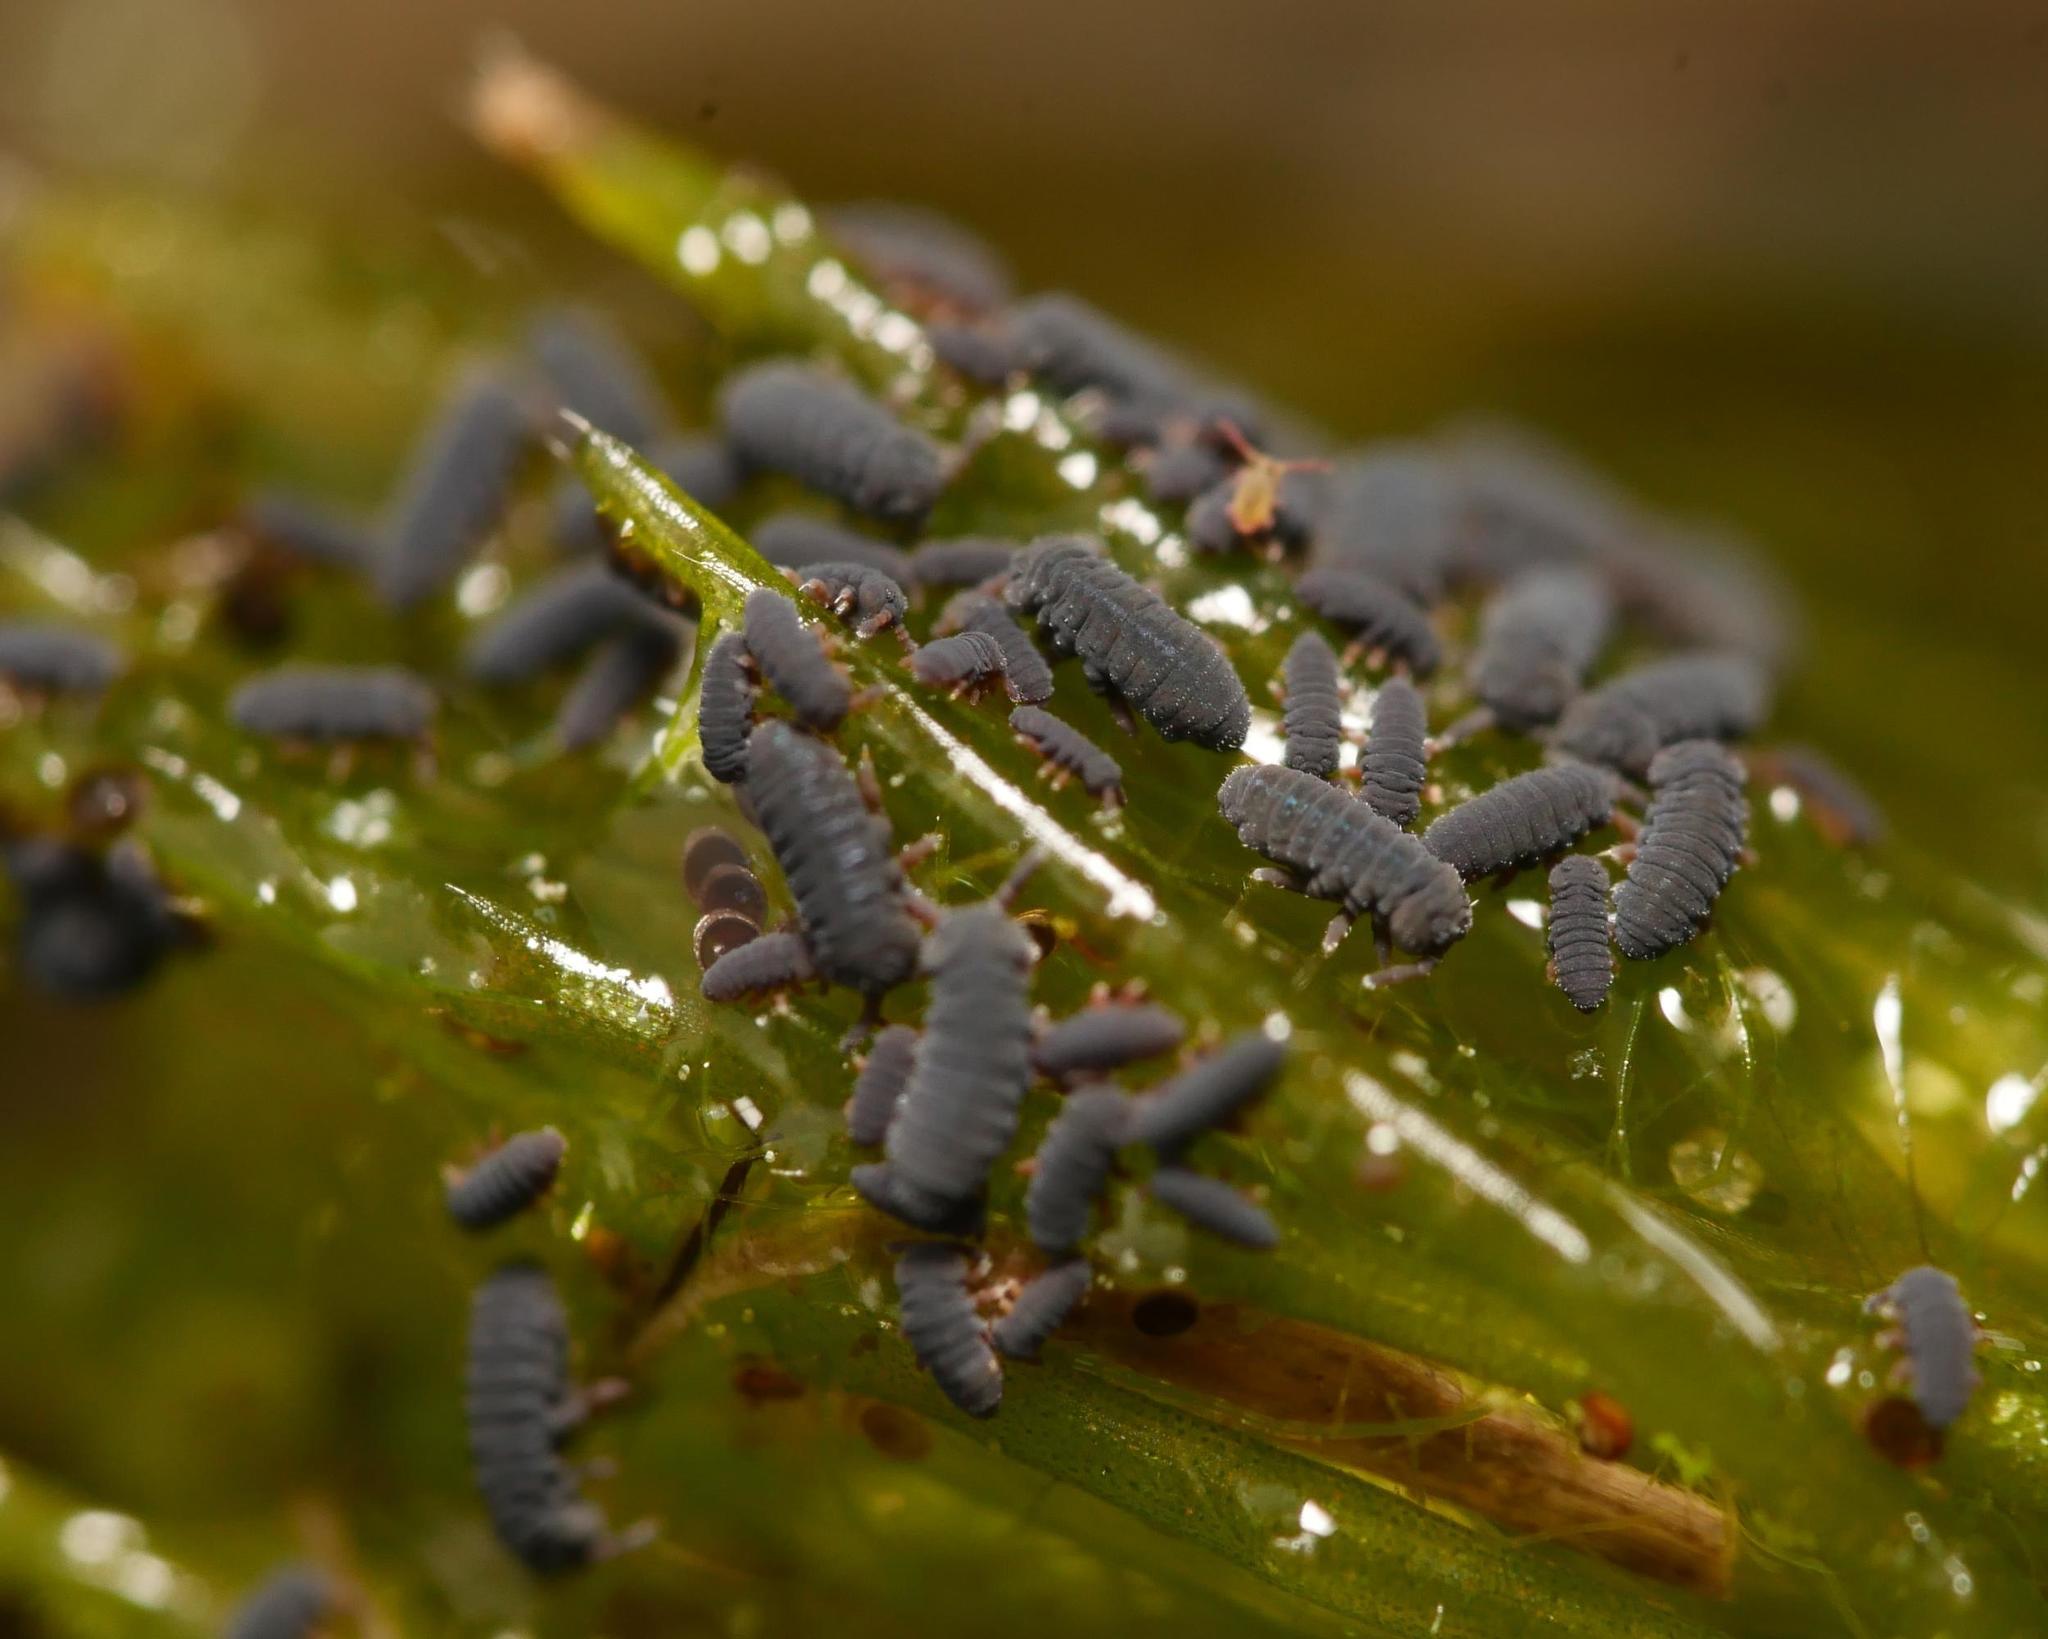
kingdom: Animalia
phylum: Arthropoda
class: Collembola
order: Poduromorpha
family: Poduridae
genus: Podura
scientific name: Podura aquatica
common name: Water springtail
